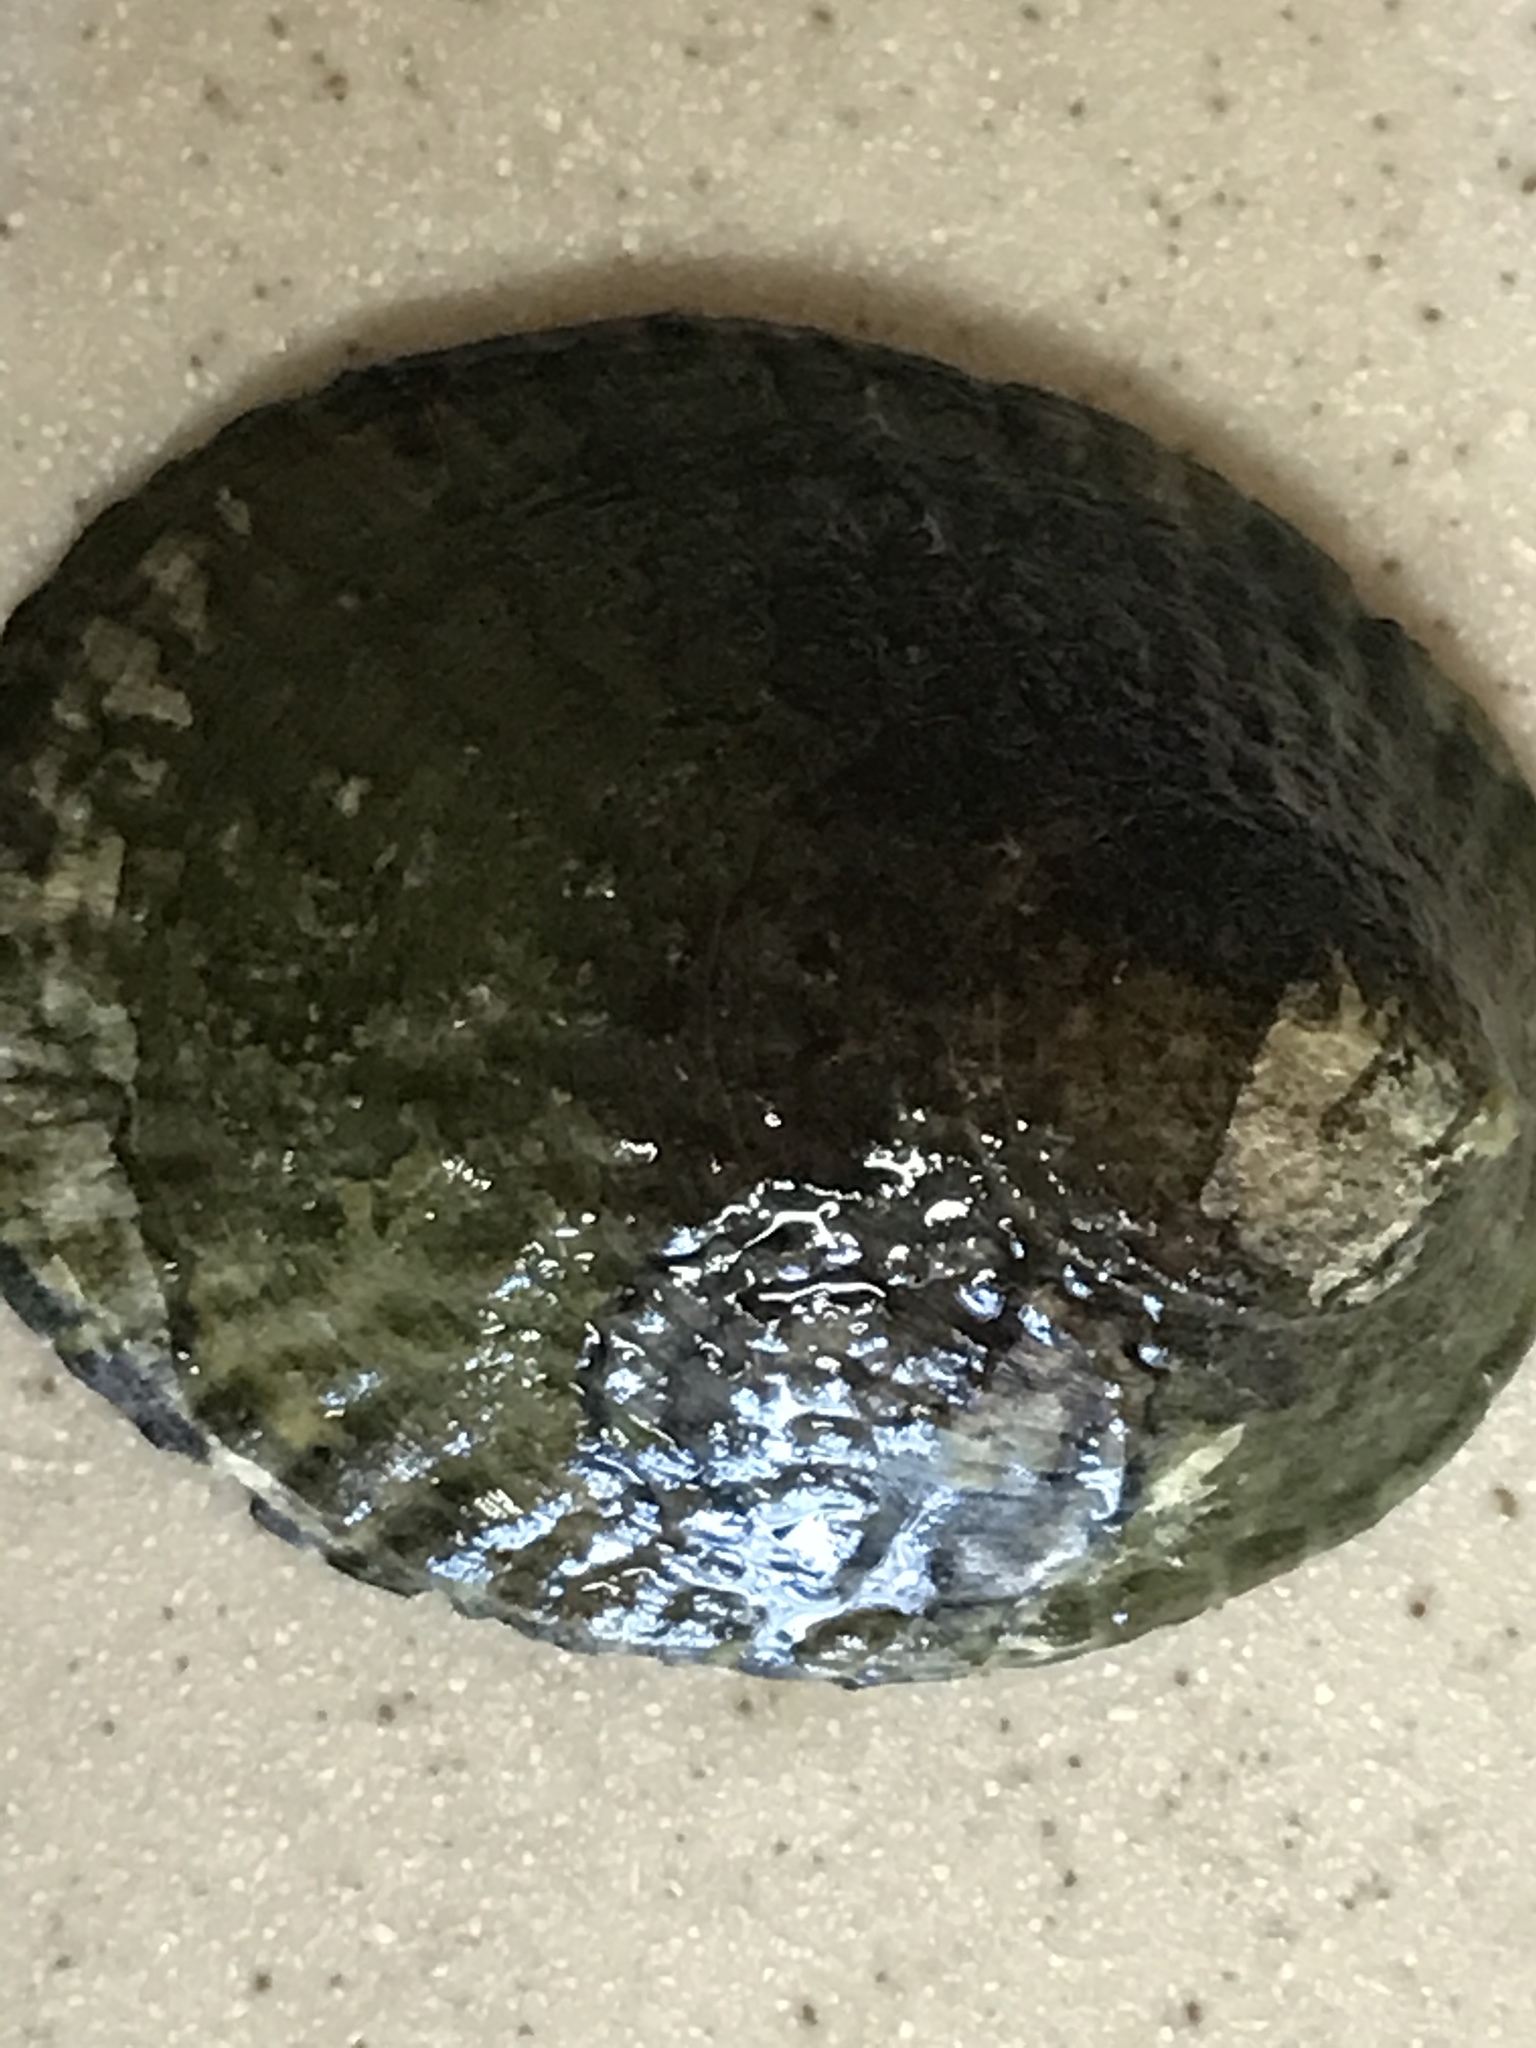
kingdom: Animalia
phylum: Mollusca
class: Gastropoda
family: Lottiidae
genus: Lottia
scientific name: Lottia gigantea
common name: Owl limpet
